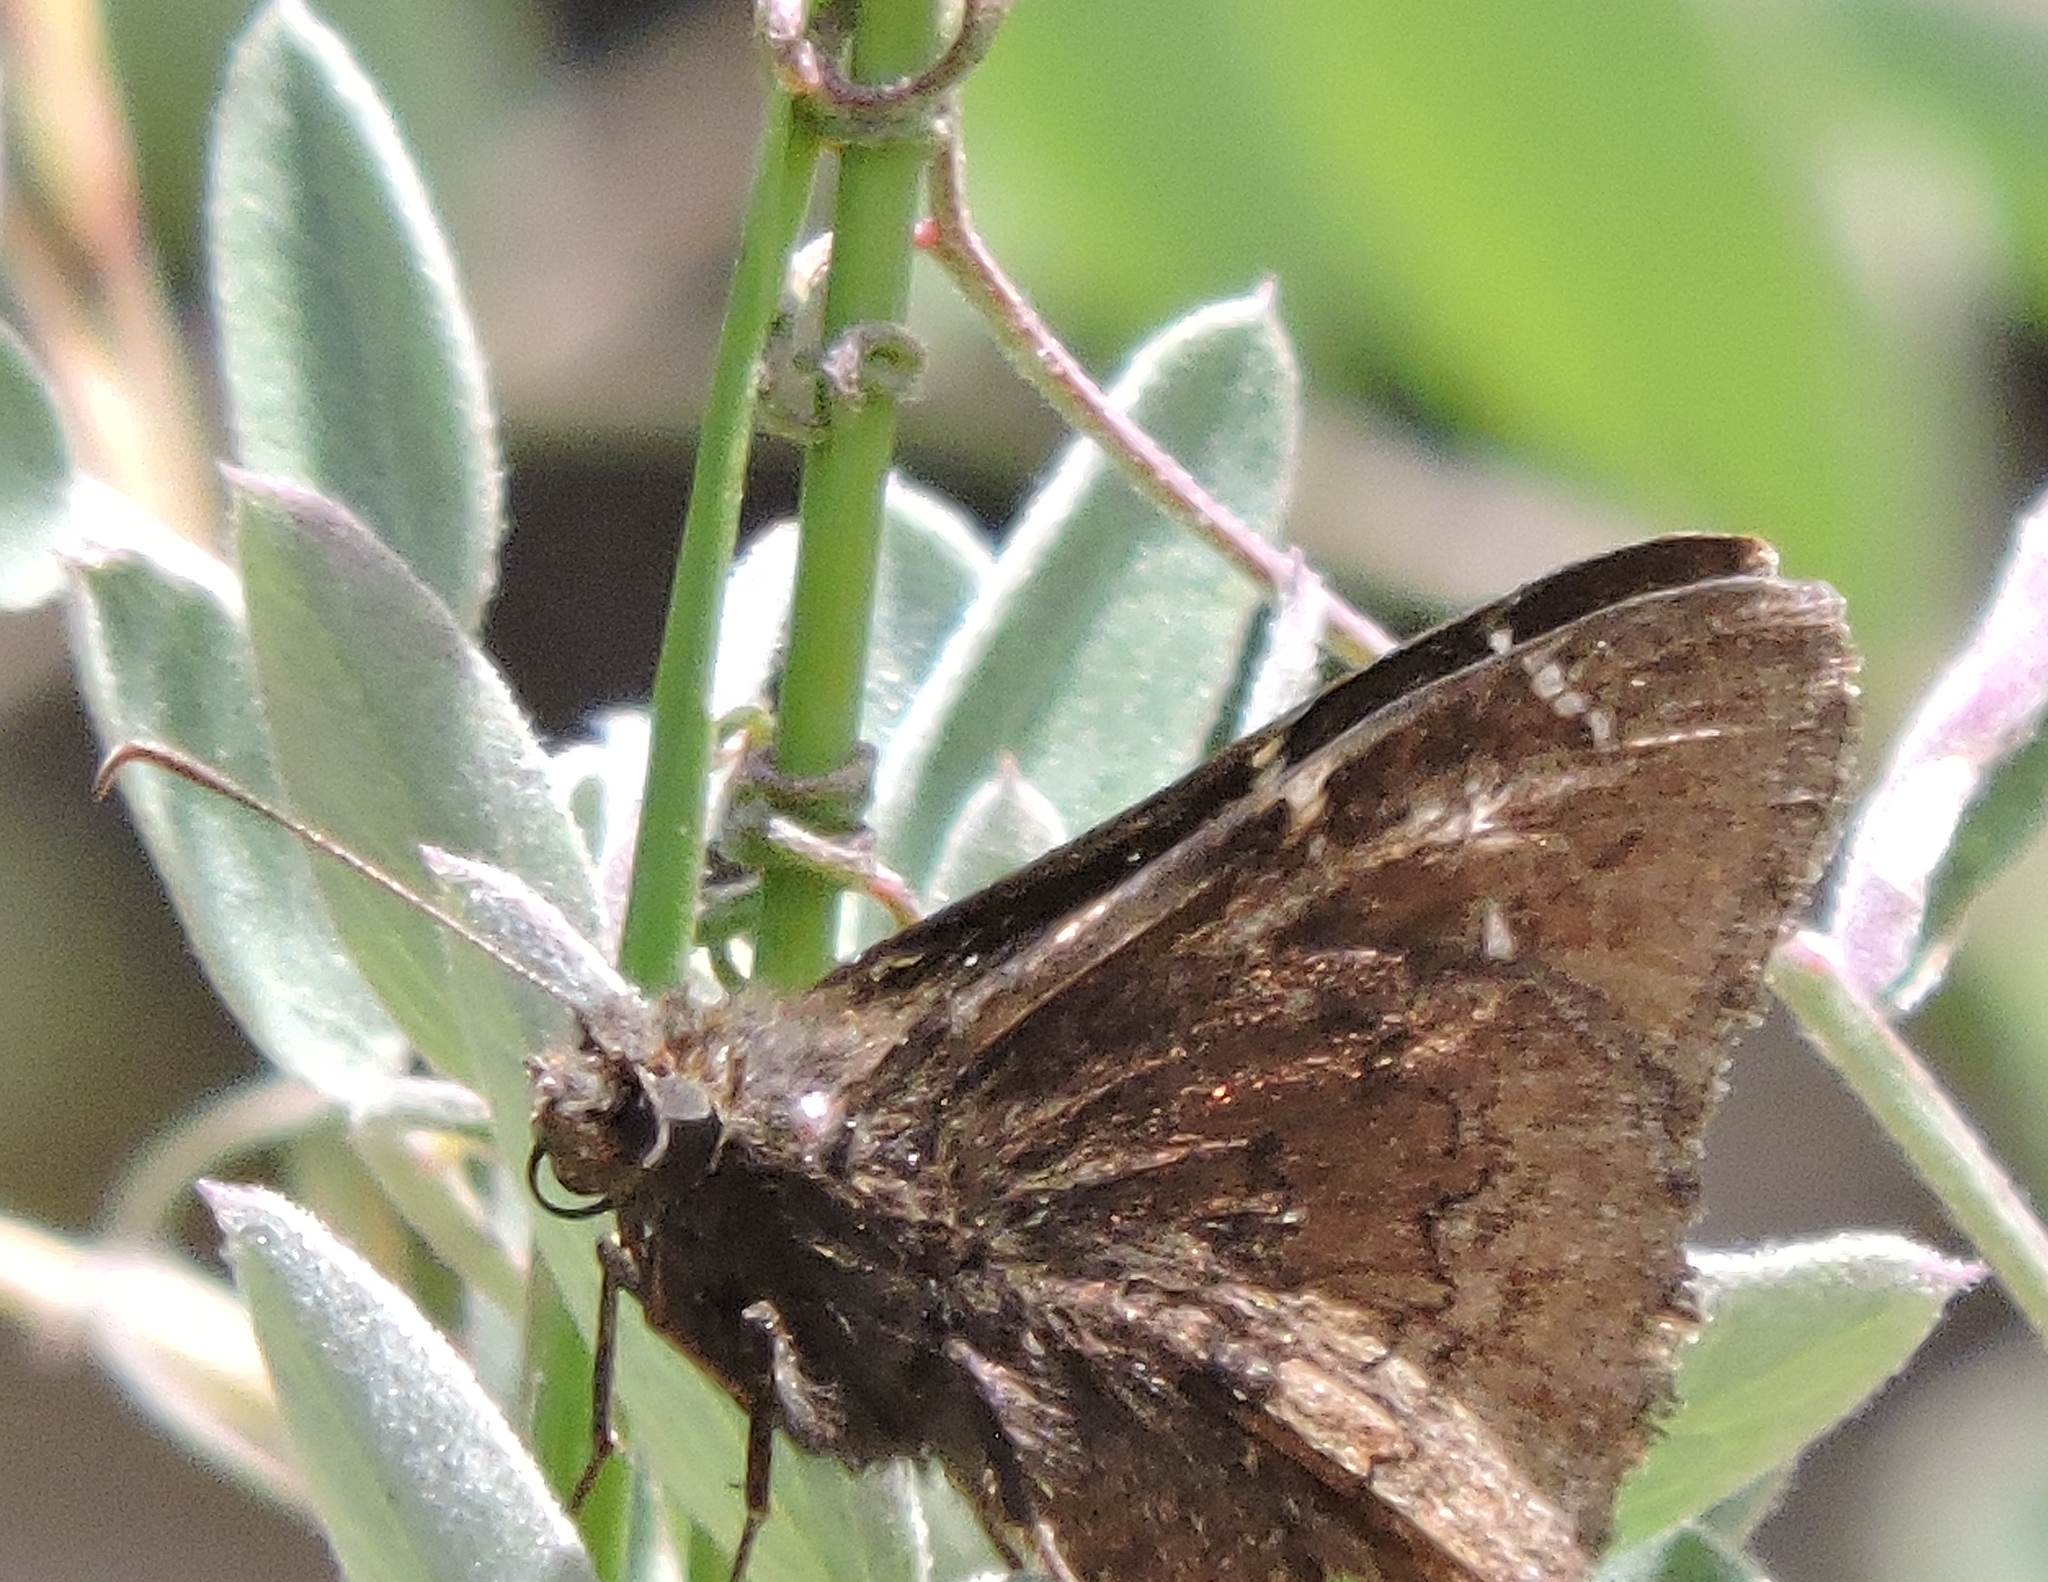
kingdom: Animalia
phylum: Arthropoda
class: Insecta
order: Lepidoptera
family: Hesperiidae
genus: Thorybes
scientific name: Thorybes pylades
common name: Northern cloudywing
